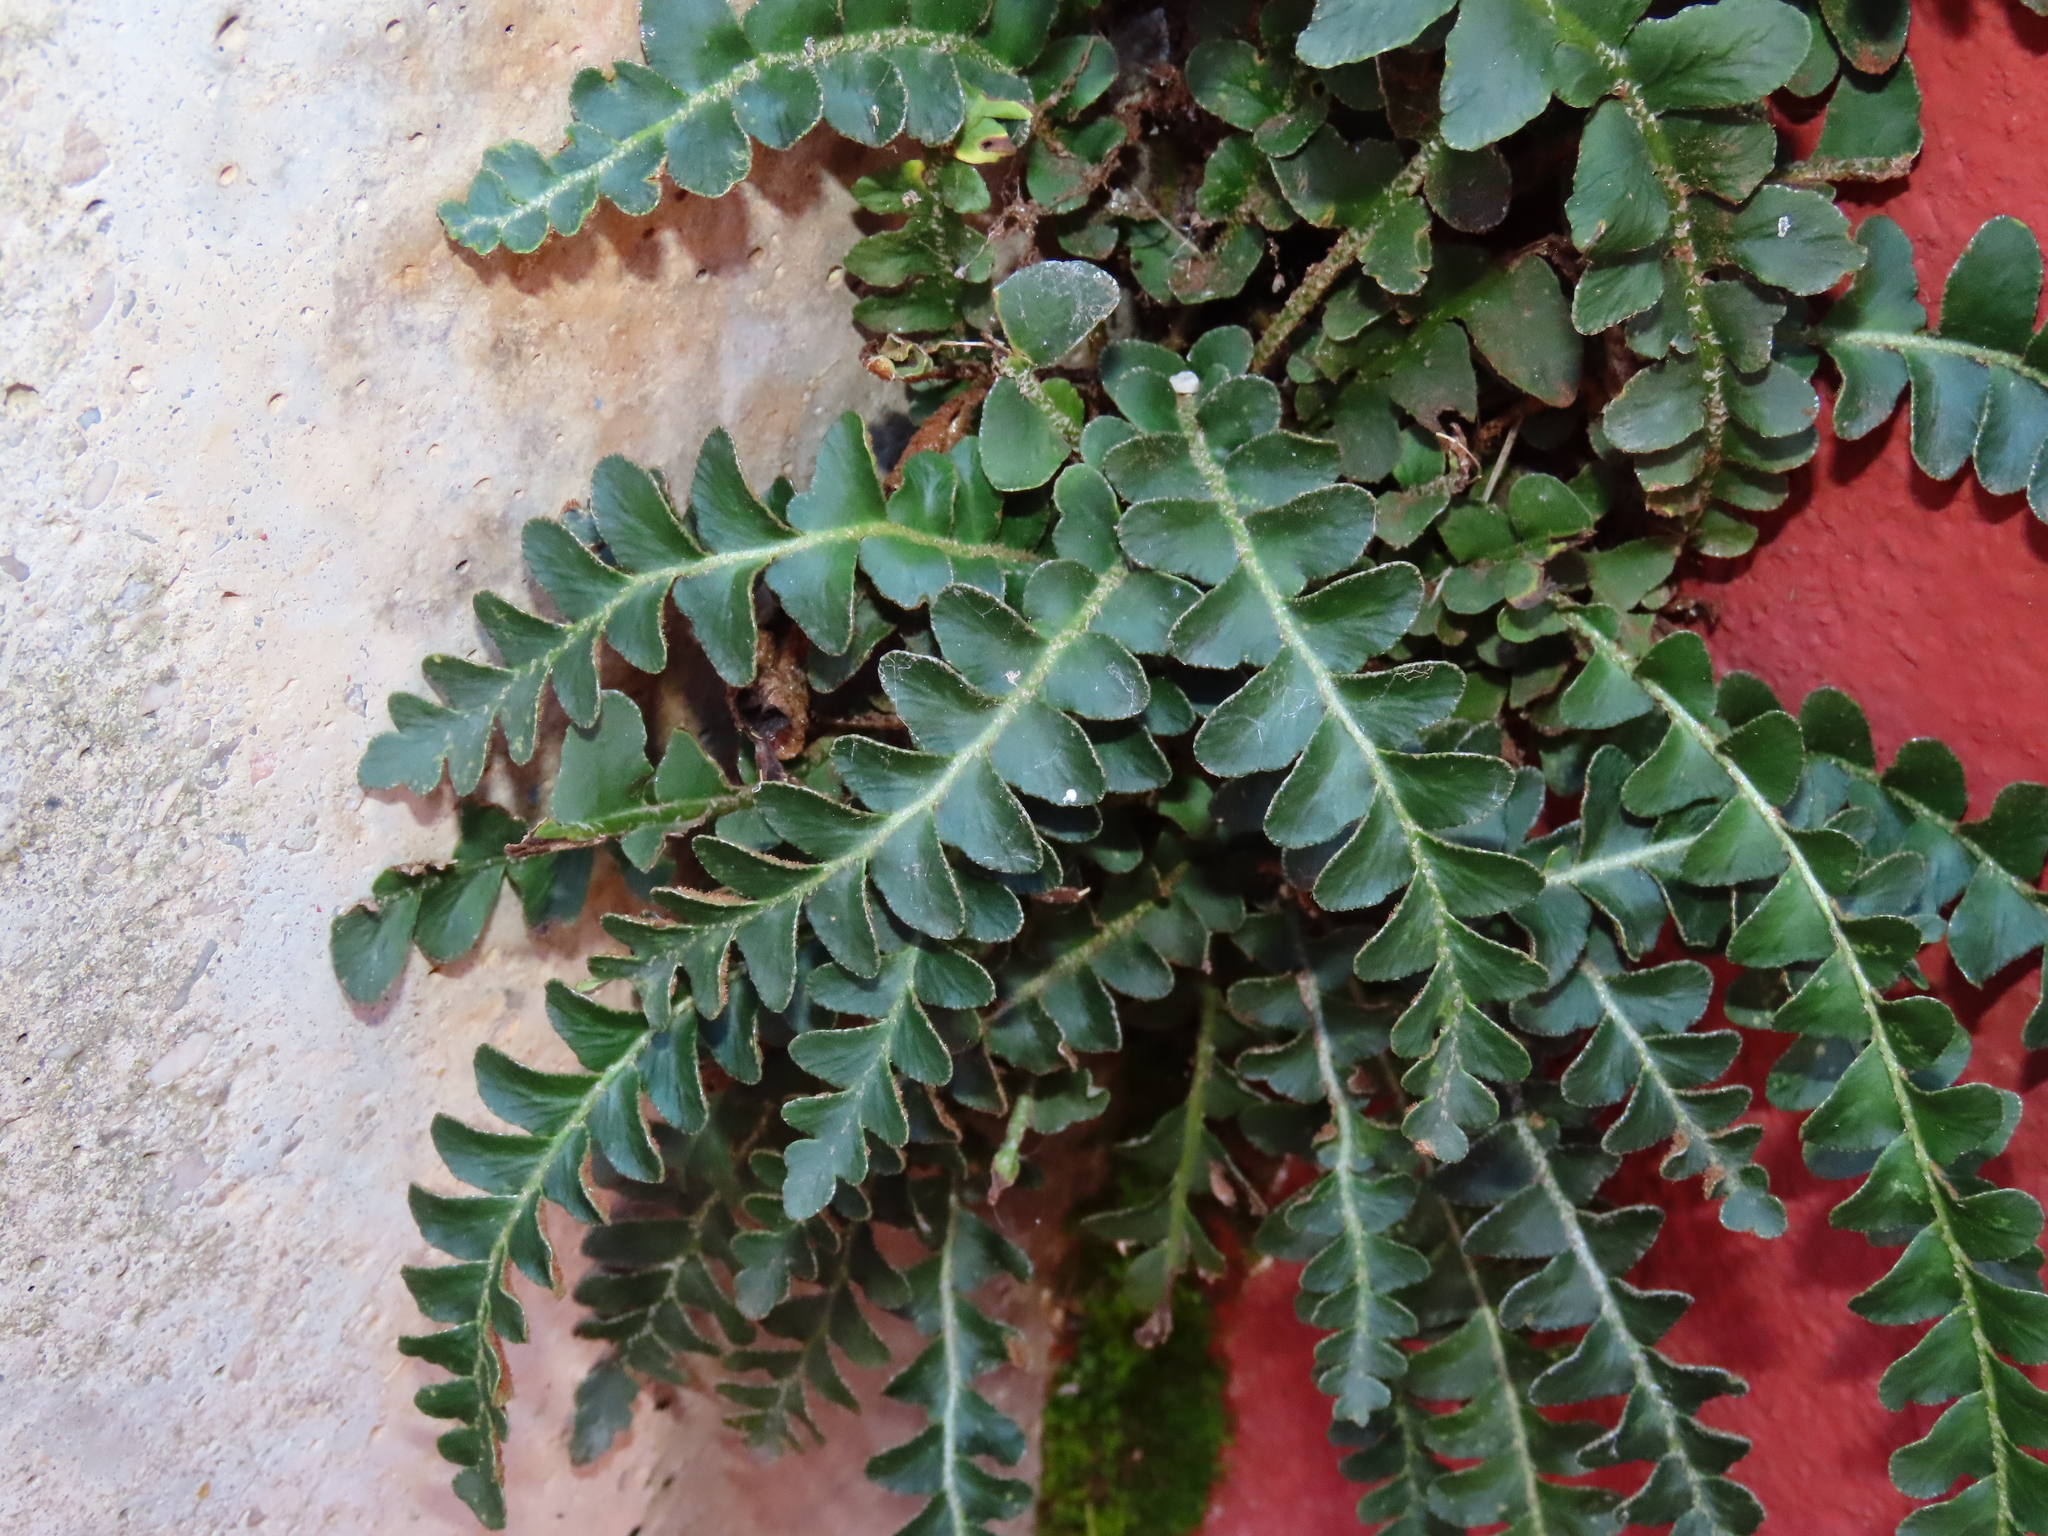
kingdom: Plantae
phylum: Tracheophyta
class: Polypodiopsida
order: Polypodiales
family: Aspleniaceae
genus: Asplenium
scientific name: Asplenium ceterach
